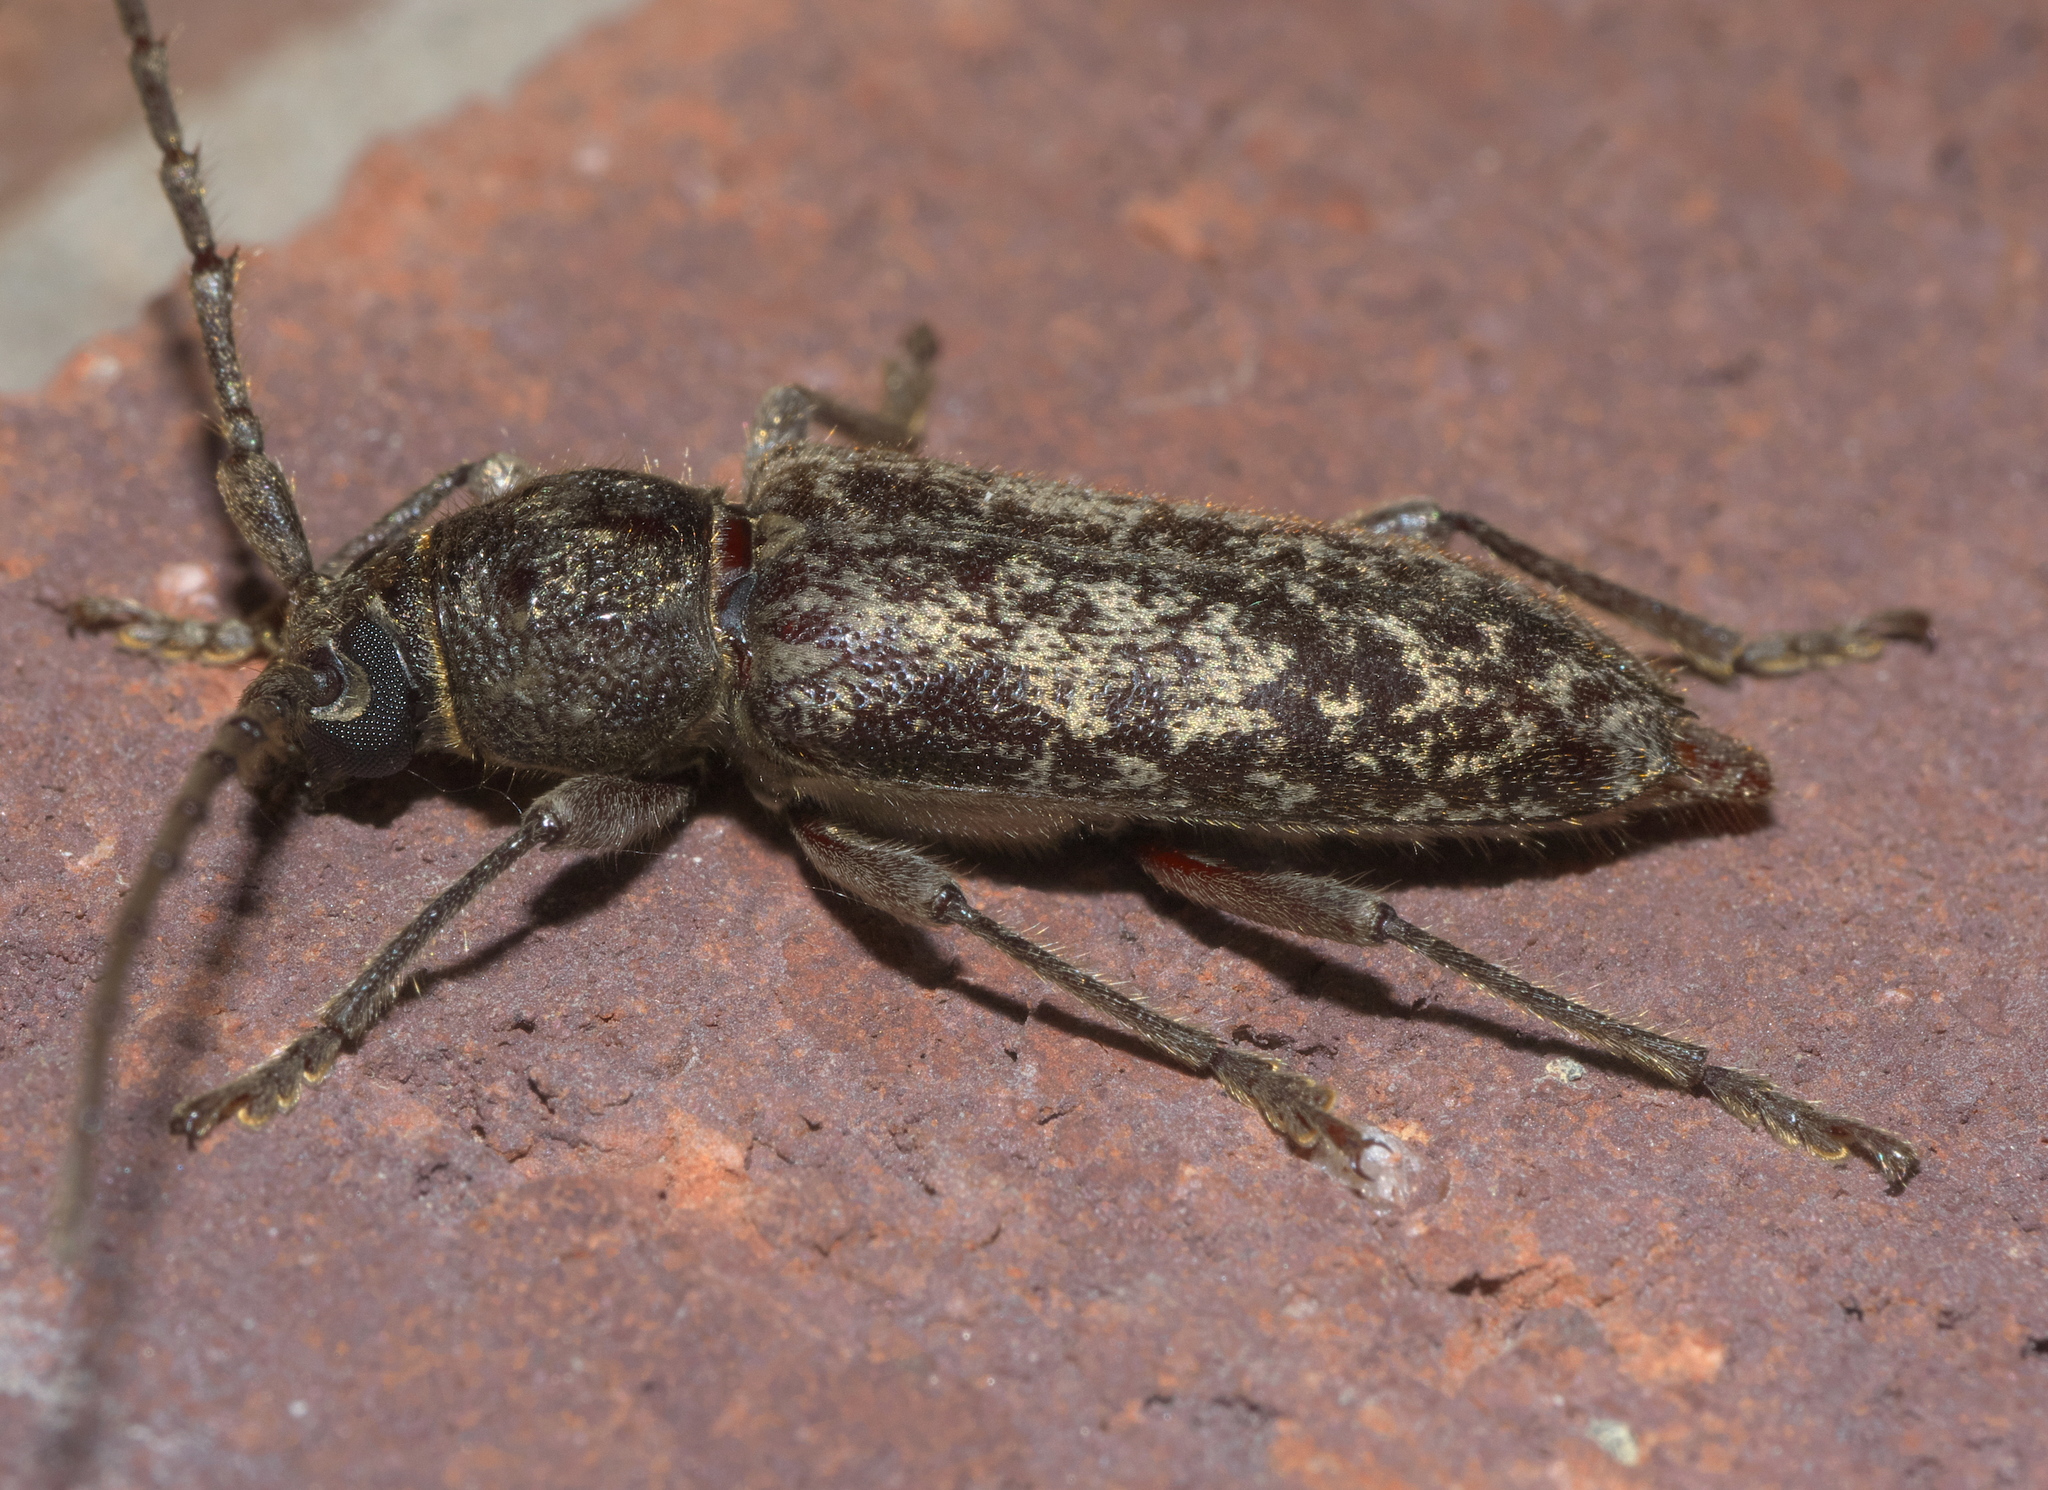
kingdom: Animalia
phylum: Arthropoda
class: Insecta
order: Coleoptera
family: Cerambycidae
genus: Enaphalodes
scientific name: Enaphalodes atomarius
